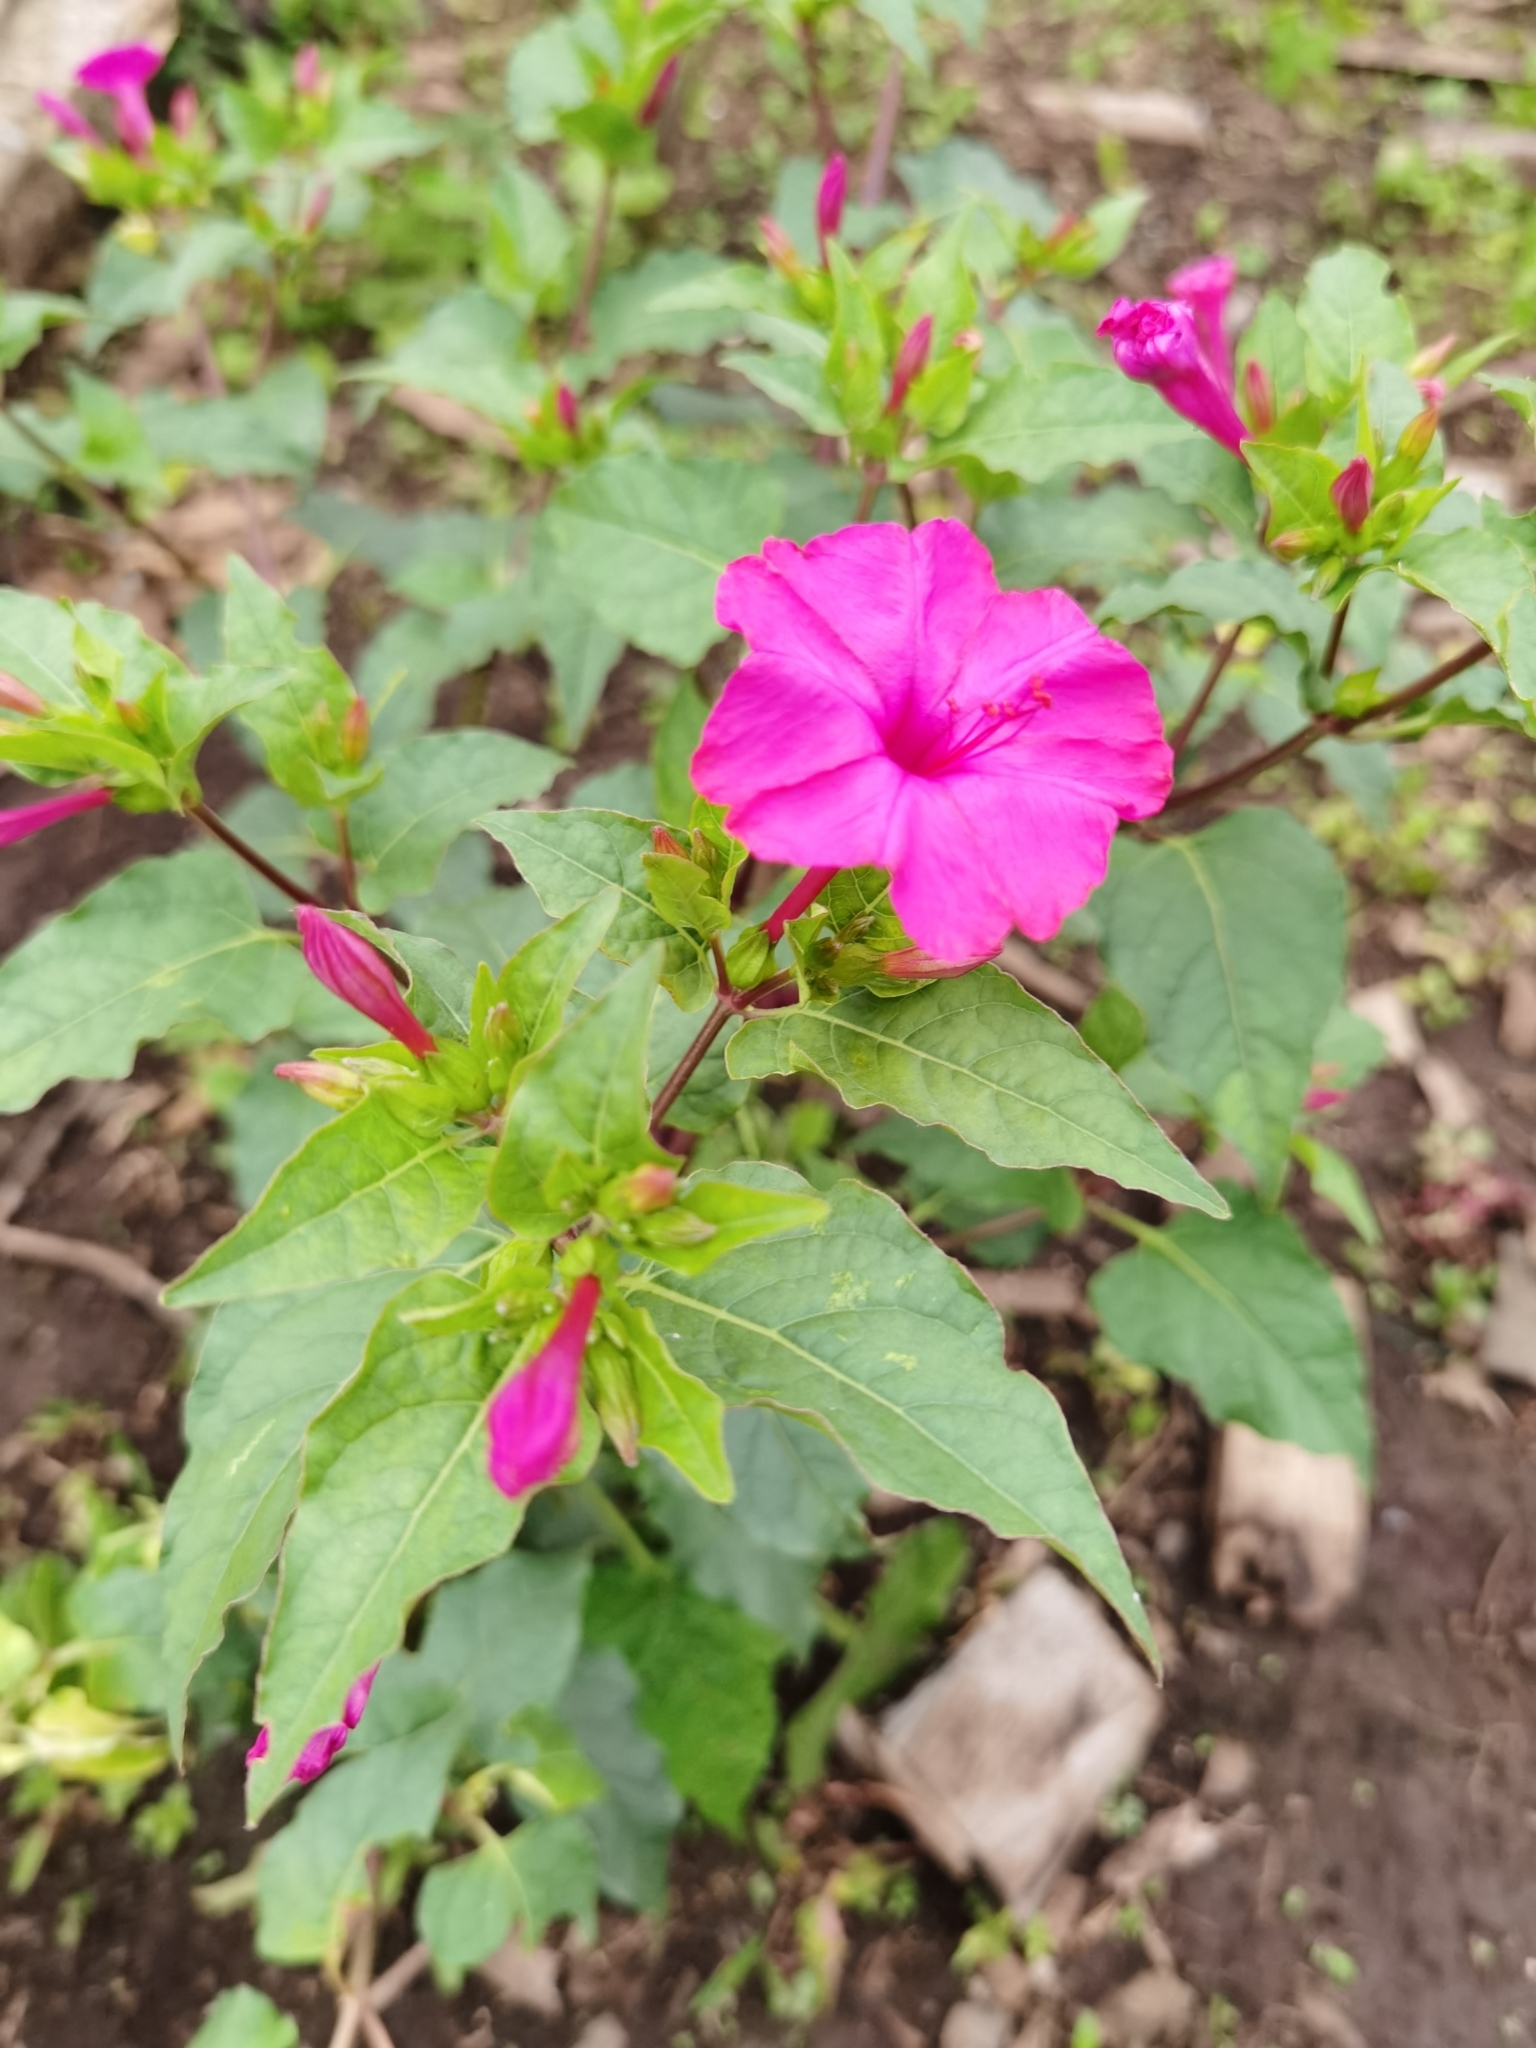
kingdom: Plantae
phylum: Tracheophyta
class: Magnoliopsida
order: Caryophyllales
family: Nyctaginaceae
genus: Mirabilis
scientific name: Mirabilis jalapa
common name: Marvel-of-peru
